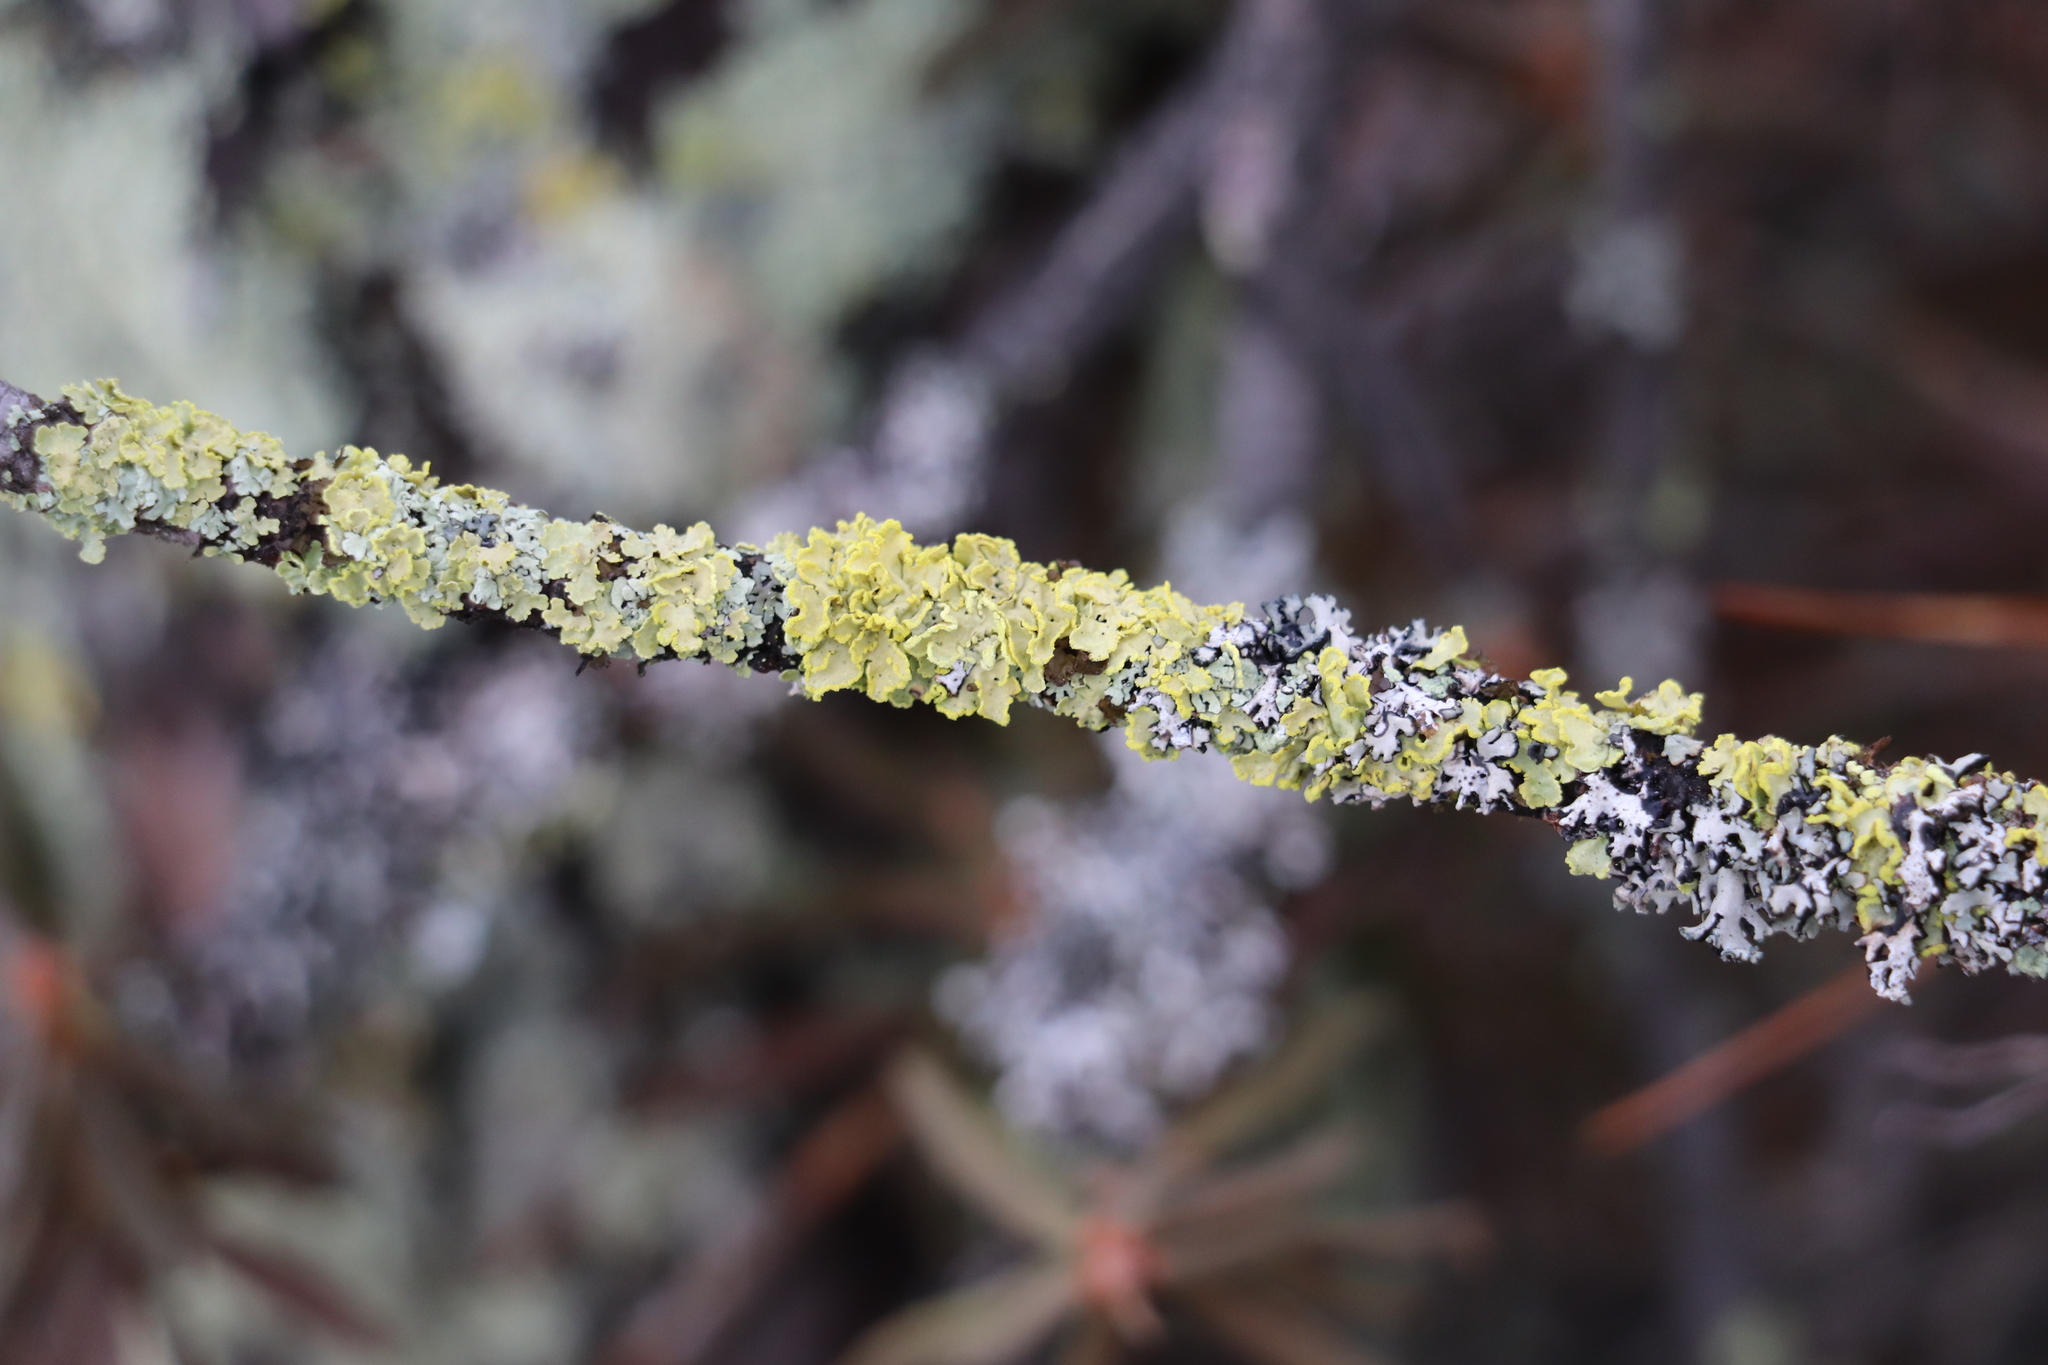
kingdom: Fungi
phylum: Ascomycota
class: Lecanoromycetes
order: Lecanorales
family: Parmeliaceae
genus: Vulpicida
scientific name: Vulpicida pinastri
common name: Powdered sunshine lichen
